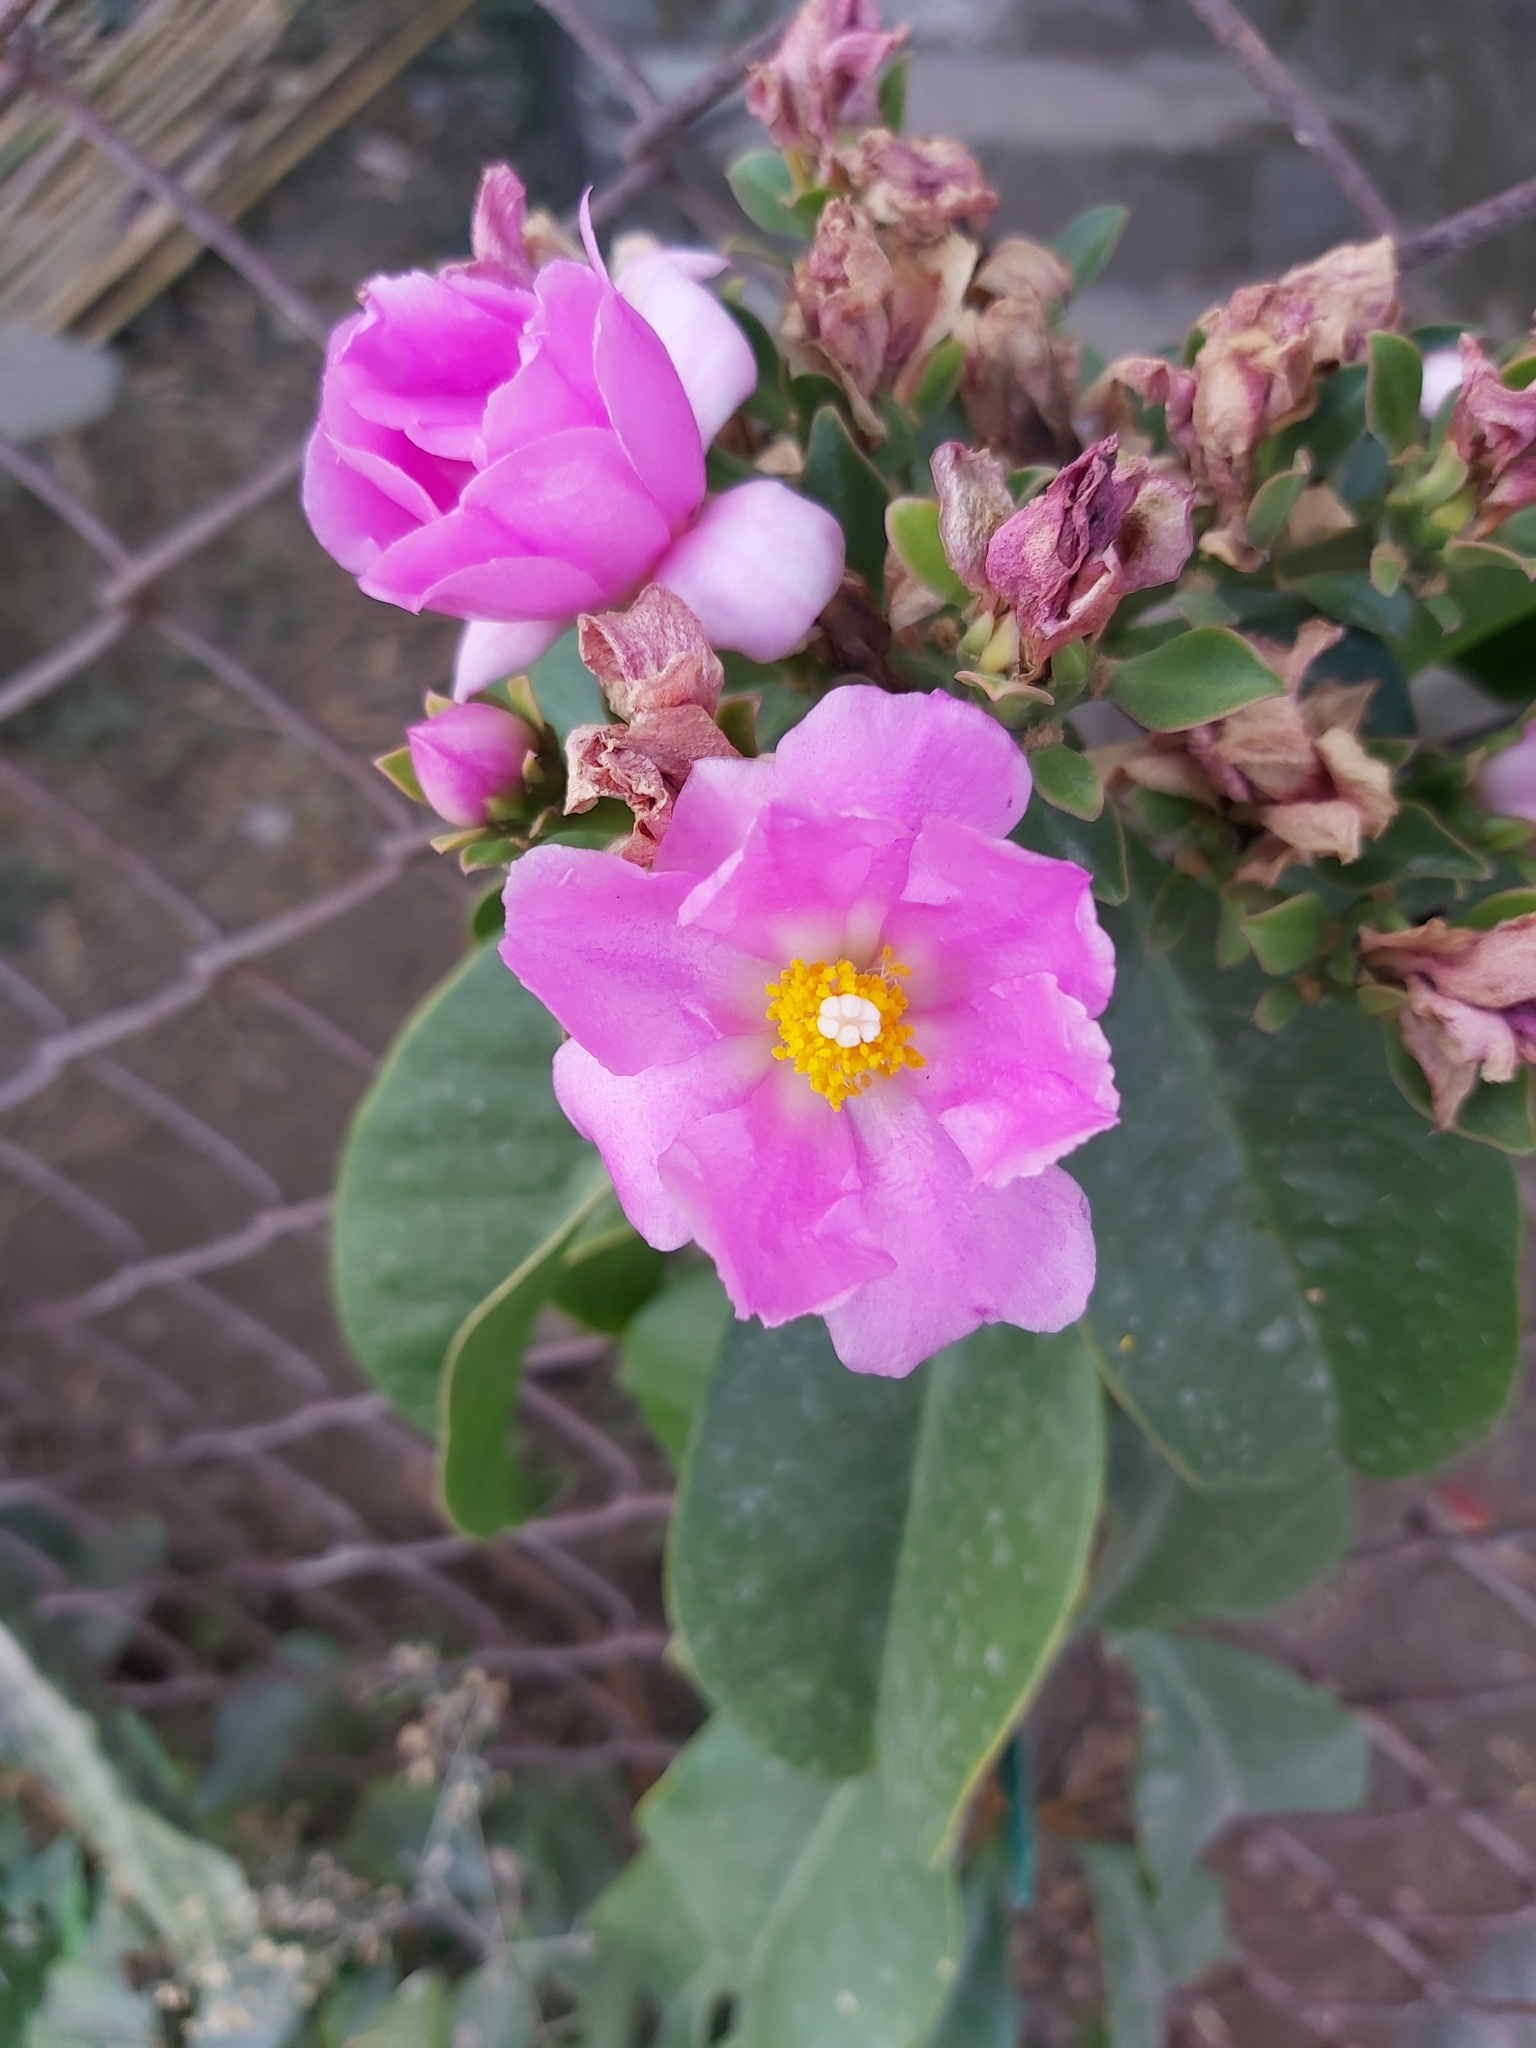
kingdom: Plantae
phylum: Tracheophyta
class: Magnoliopsida
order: Caryophyllales
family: Cactaceae
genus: Pereskia
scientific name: Pereskia grandifolia
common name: Rose cactus
